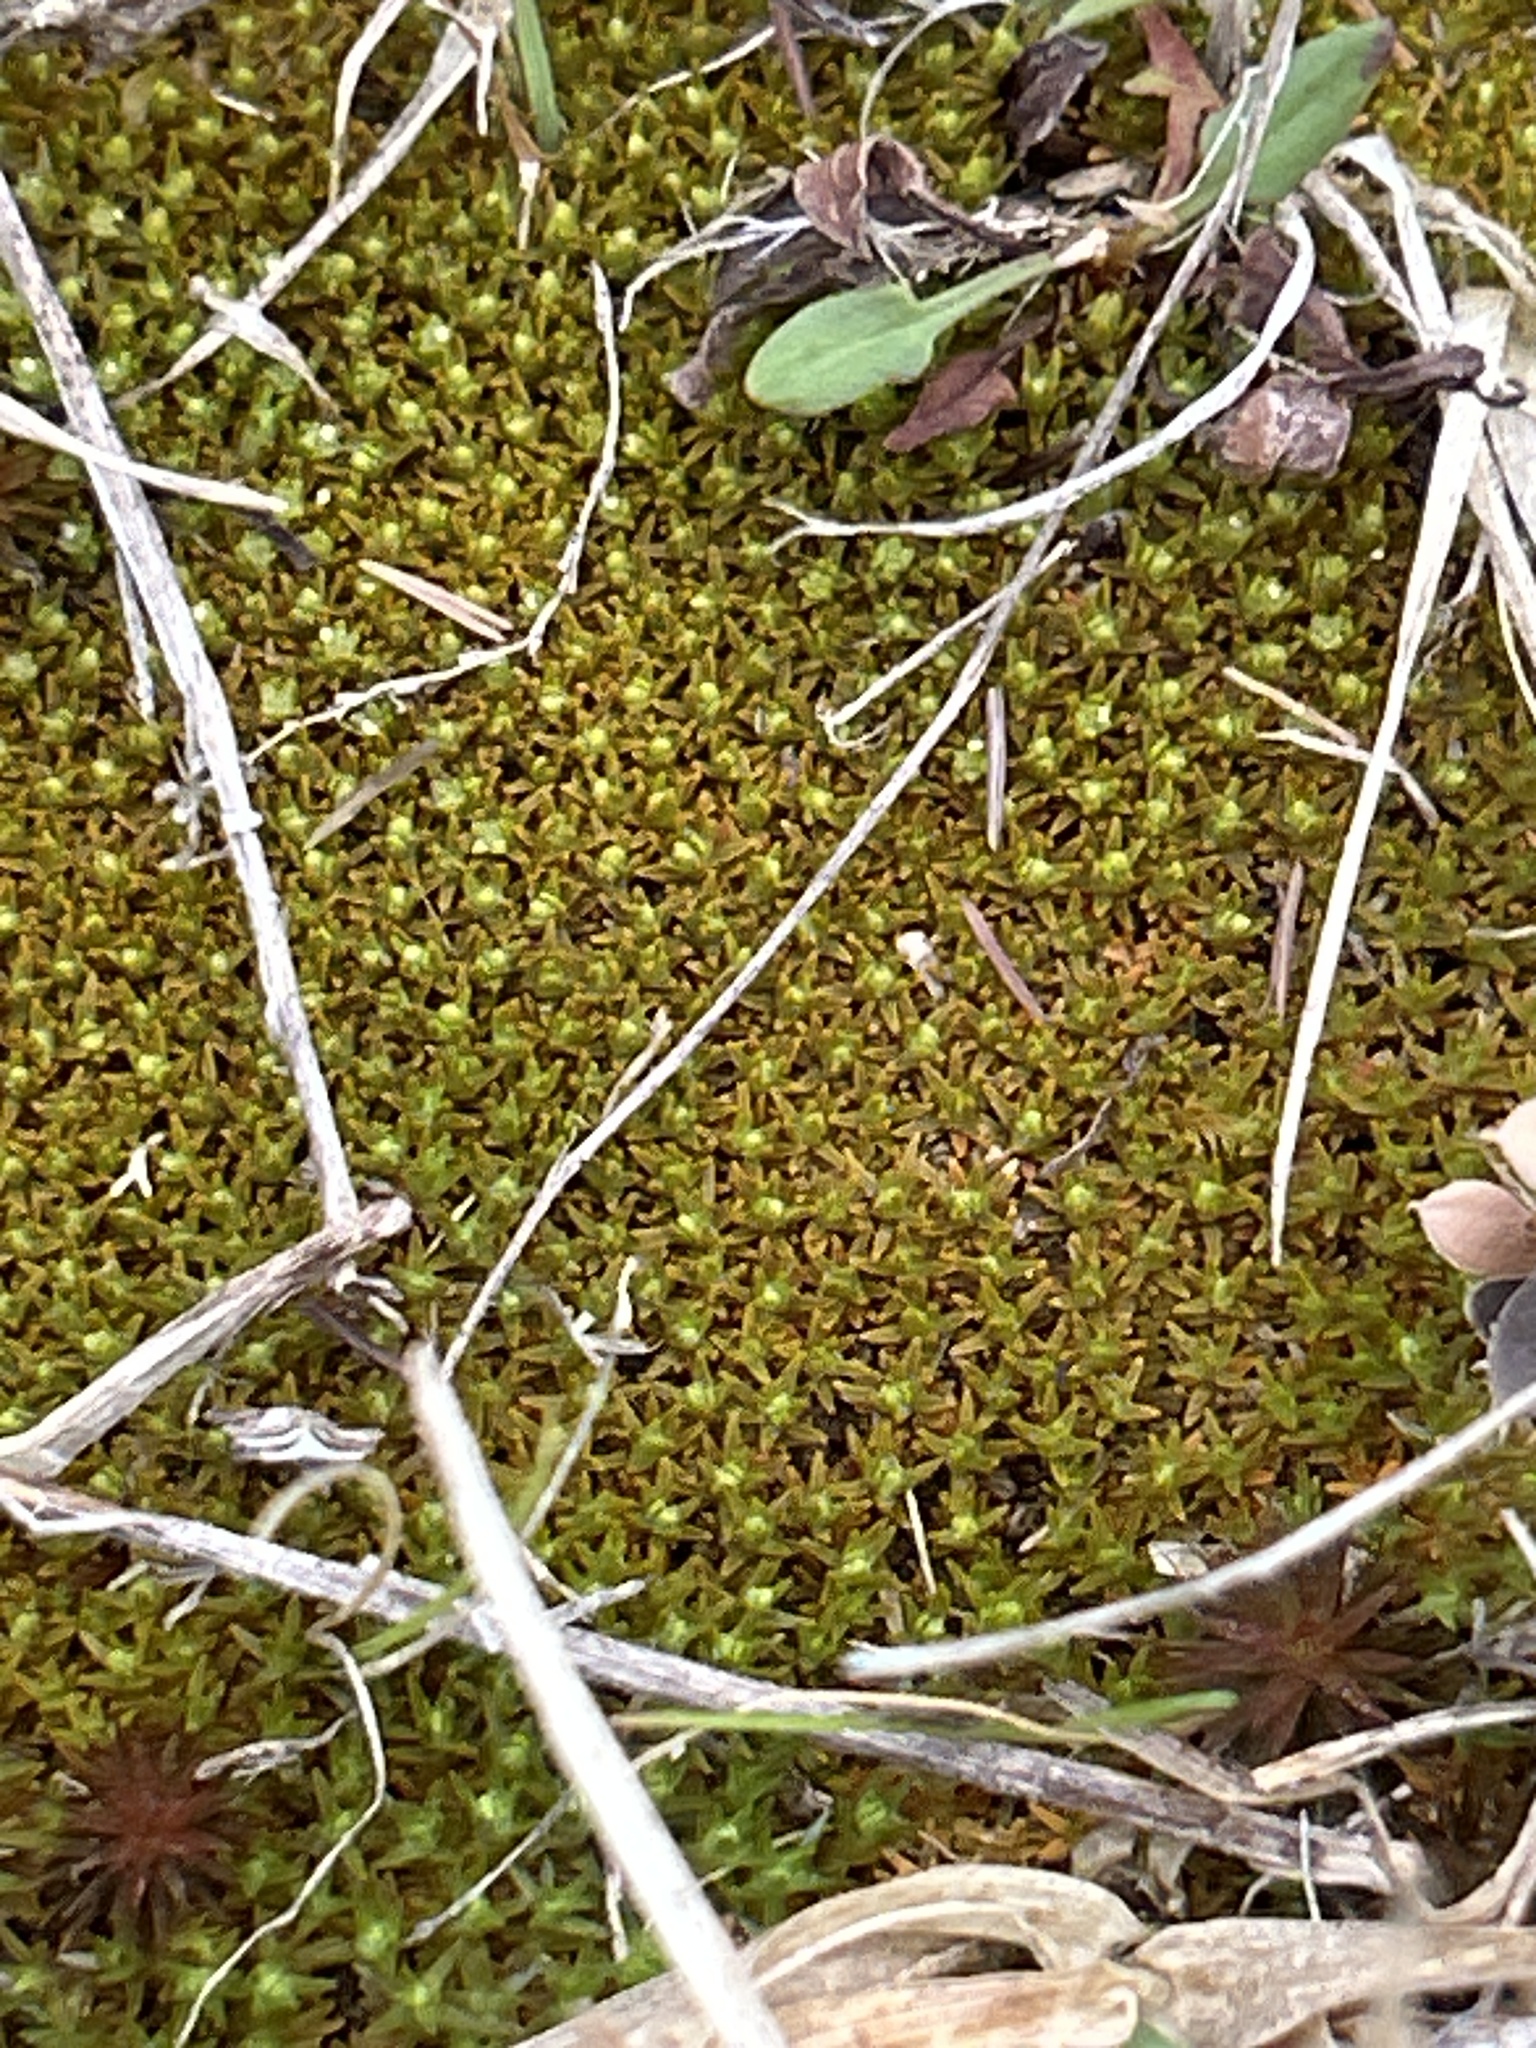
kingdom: Plantae
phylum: Tracheophyta
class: Magnoliopsida
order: Caryophyllales
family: Caryophyllaceae
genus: Scleranthus
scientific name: Scleranthus uniflorus
